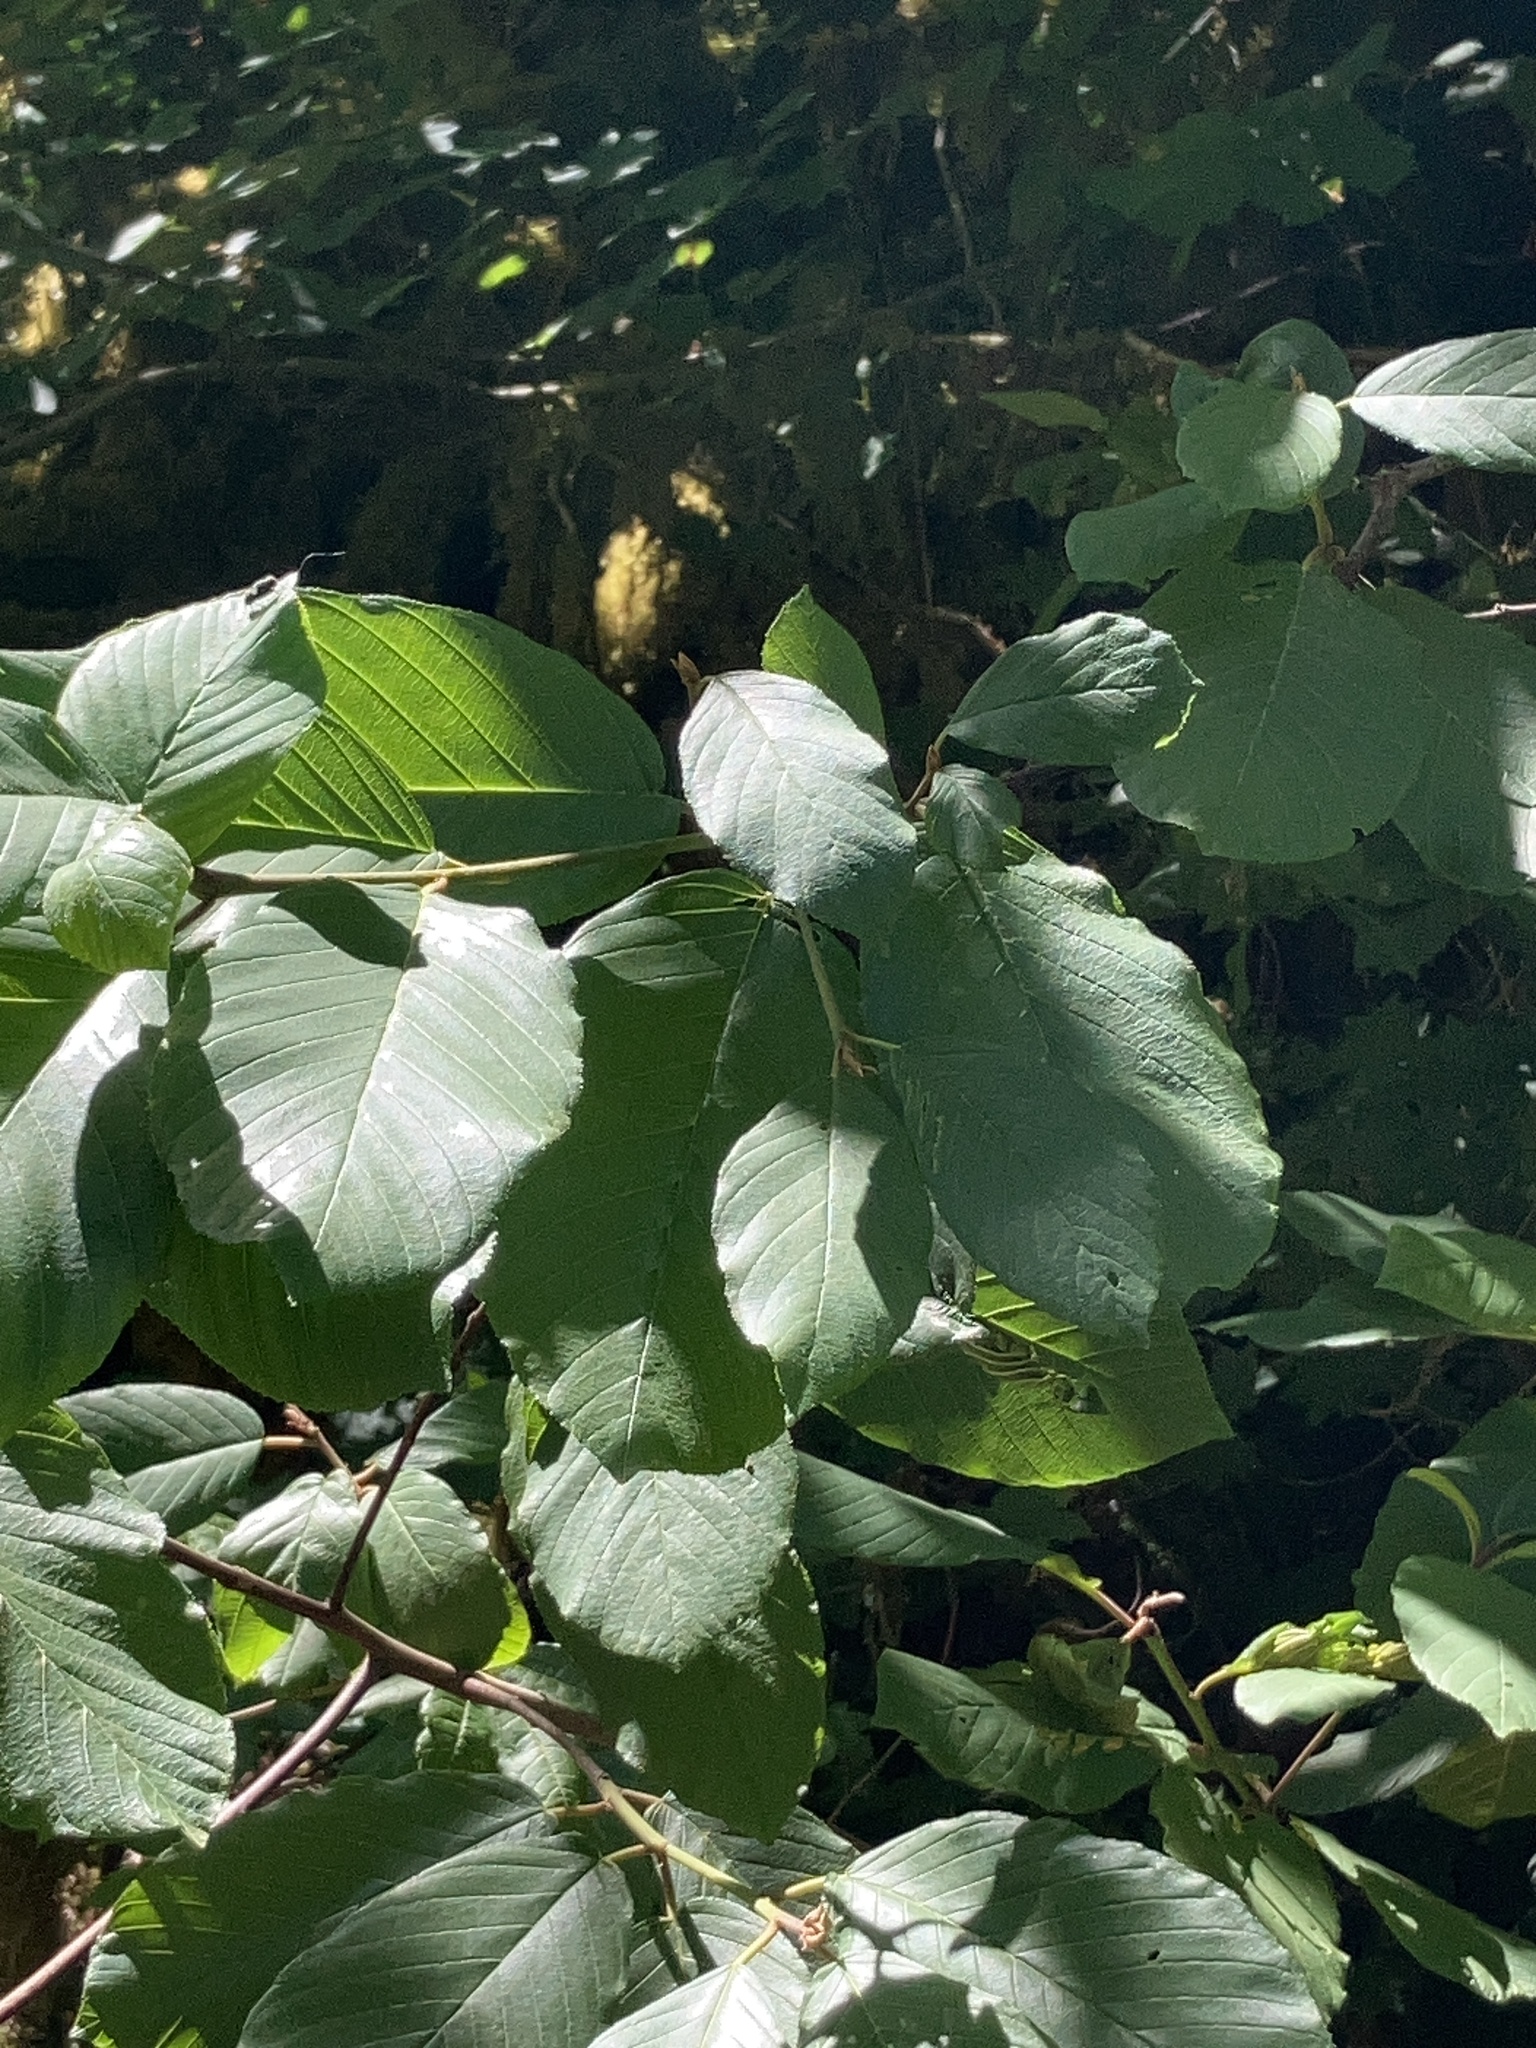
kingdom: Plantae
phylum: Tracheophyta
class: Magnoliopsida
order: Rosales
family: Rhamnaceae
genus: Frangula
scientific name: Frangula purshiana
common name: Cascara buckthorn
